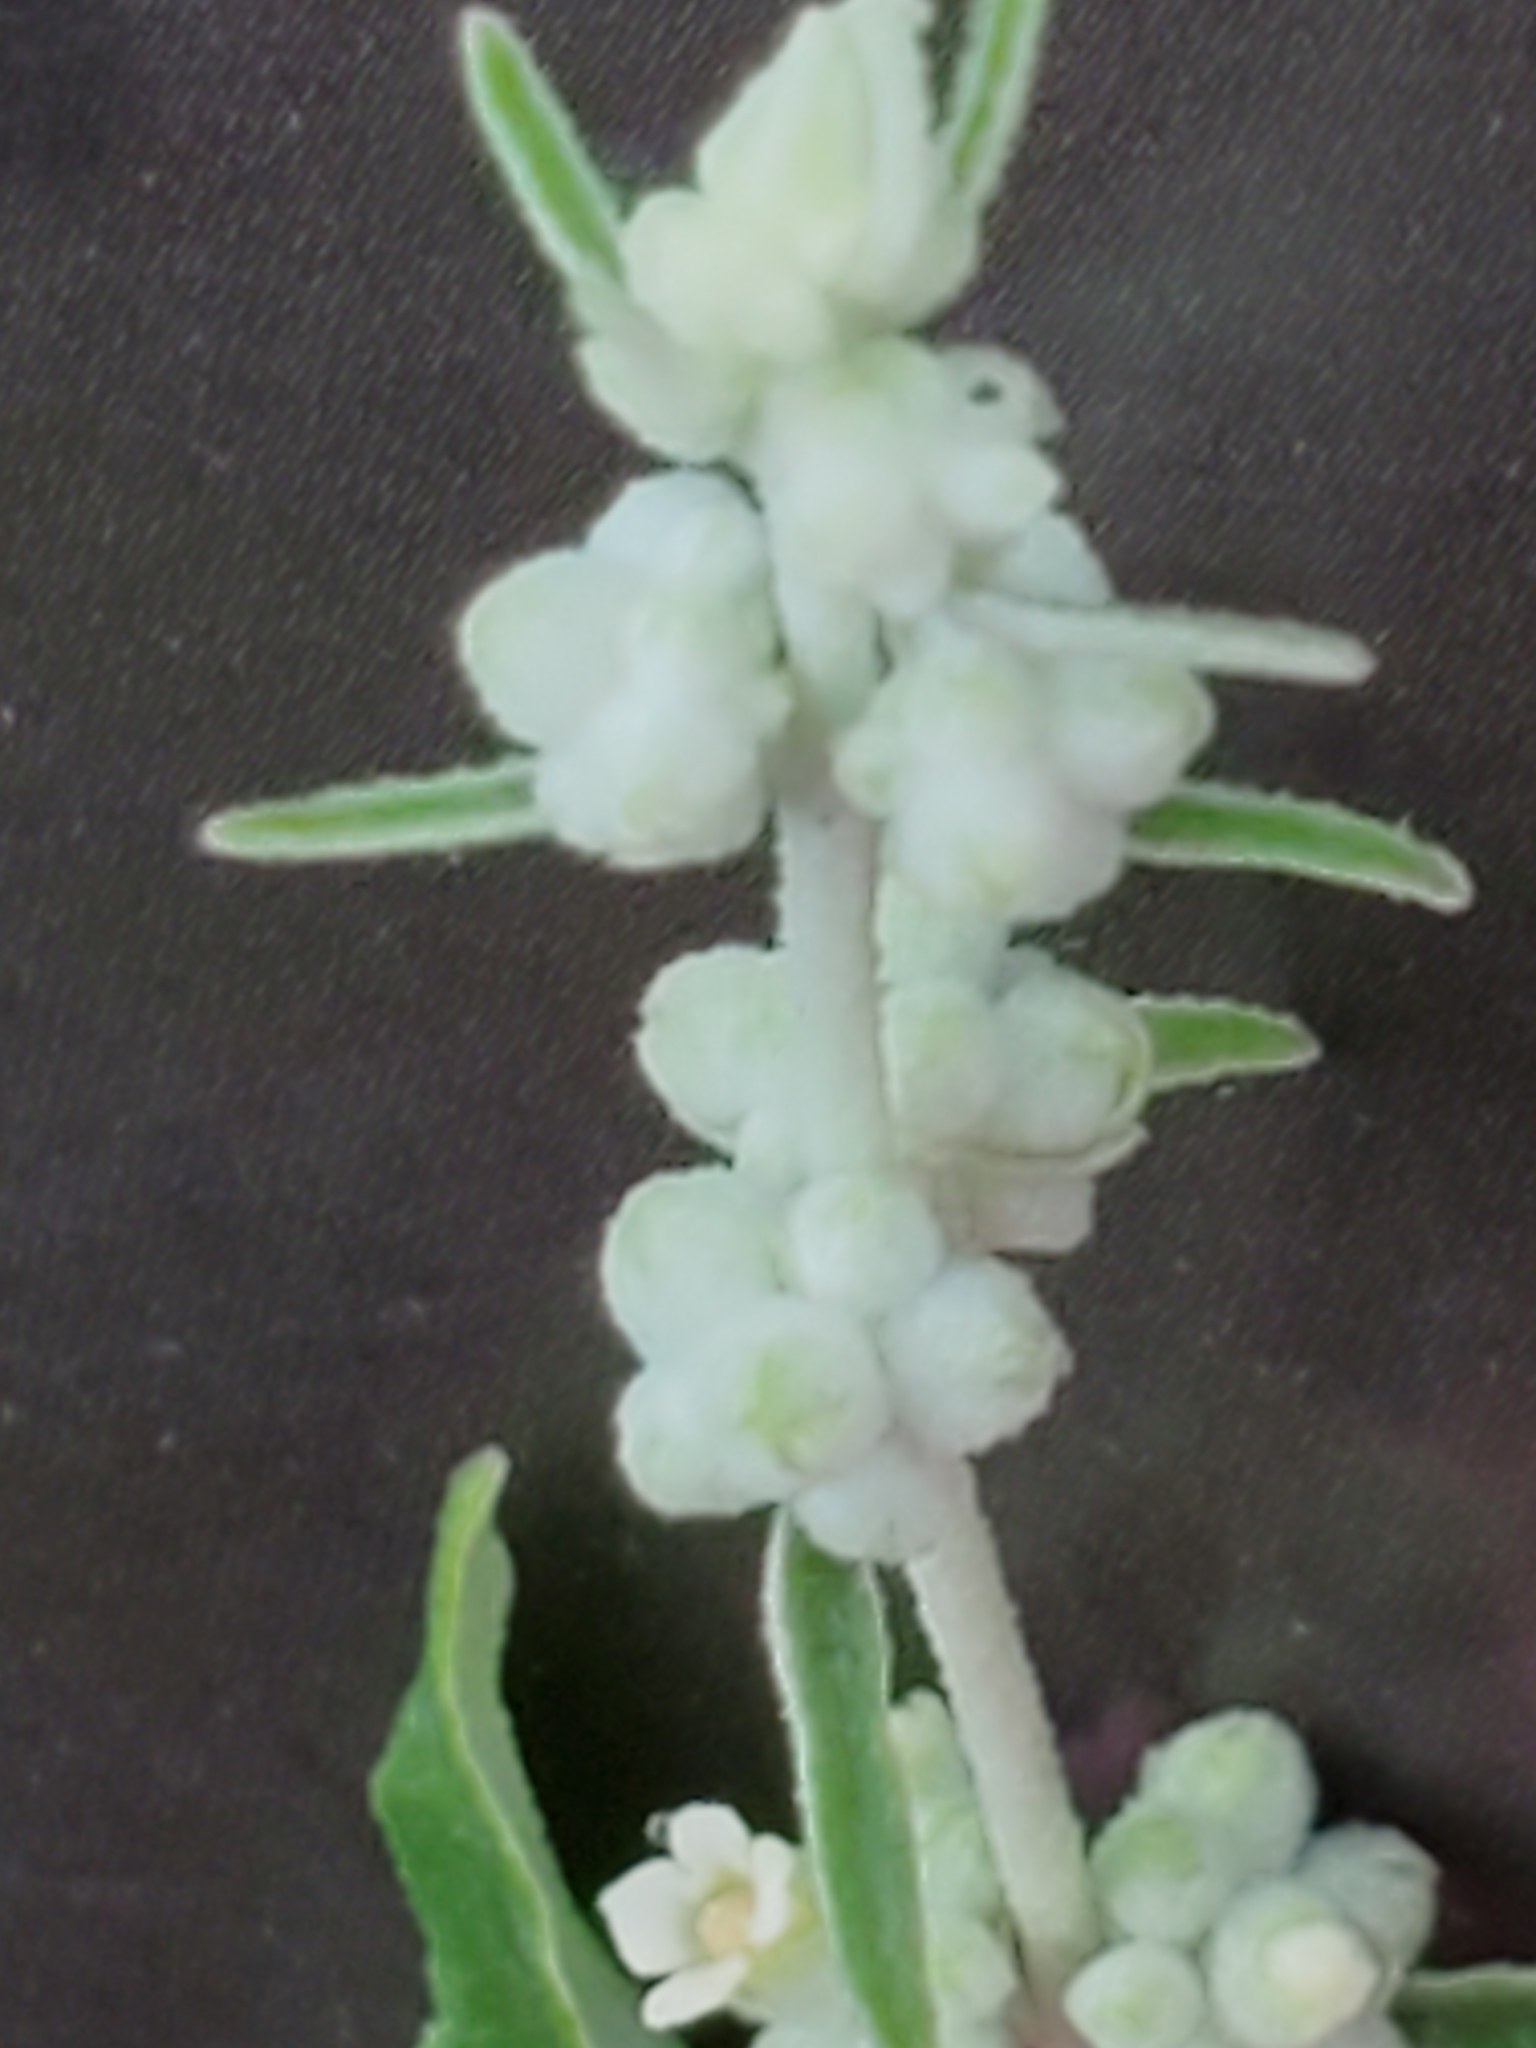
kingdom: Plantae
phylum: Tracheophyta
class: Magnoliopsida
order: Lamiales
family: Scrophulariaceae
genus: Buddleja
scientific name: Buddleja racemosa
